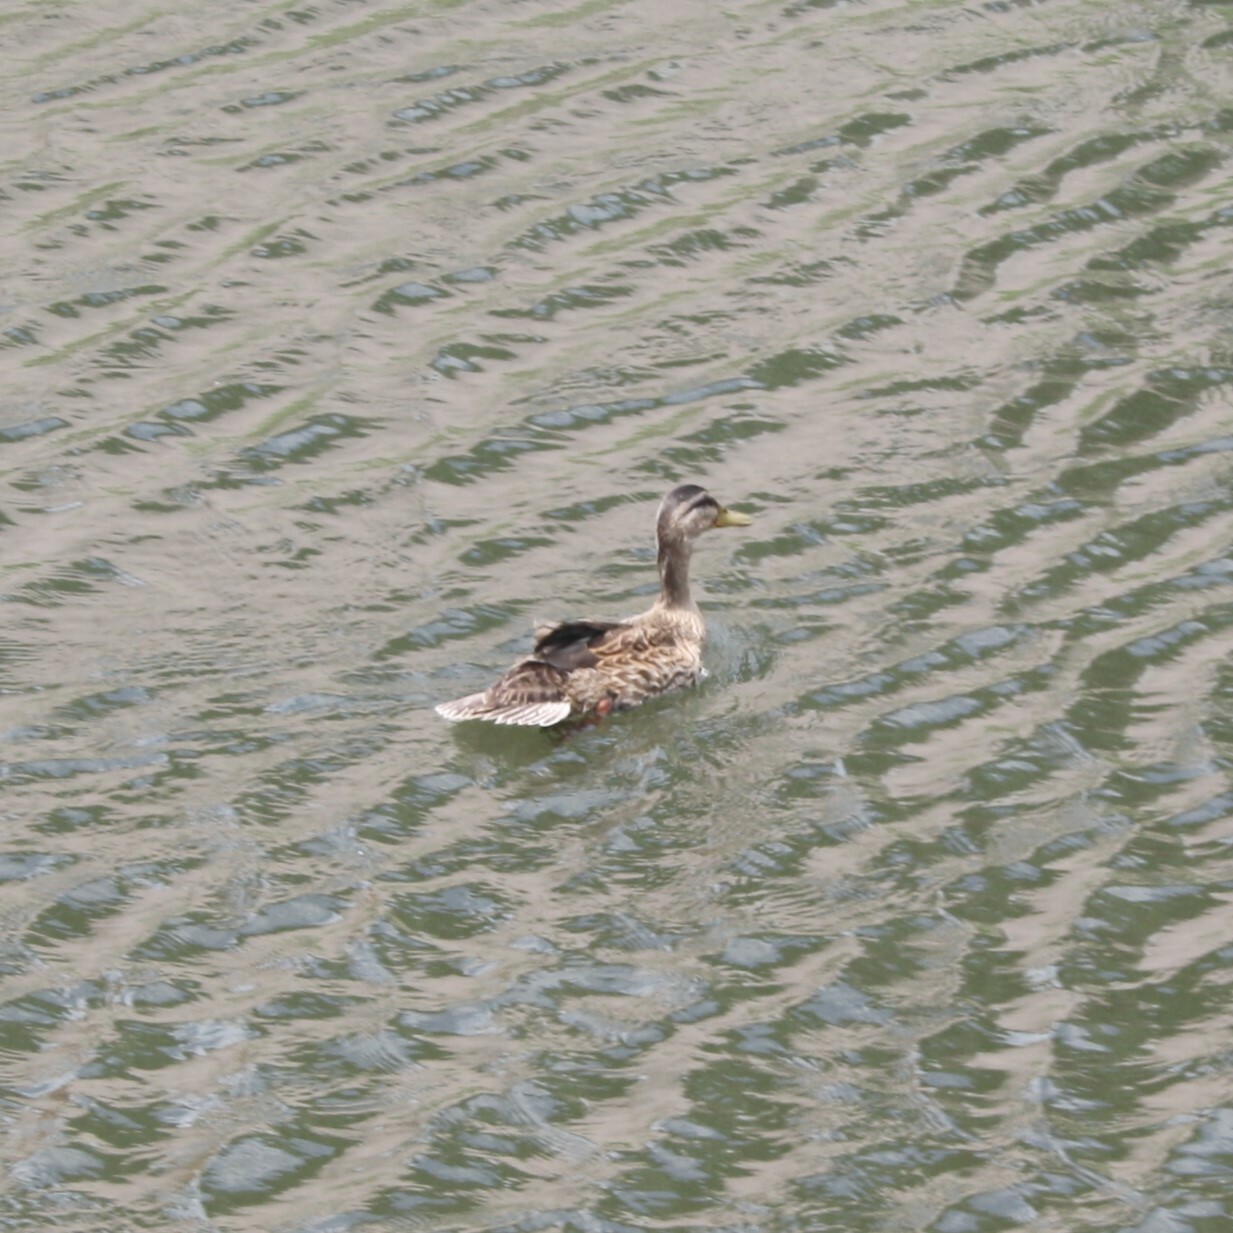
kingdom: Animalia
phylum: Chordata
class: Aves
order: Anseriformes
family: Anatidae
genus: Anas
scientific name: Anas platyrhynchos
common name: Mallard
